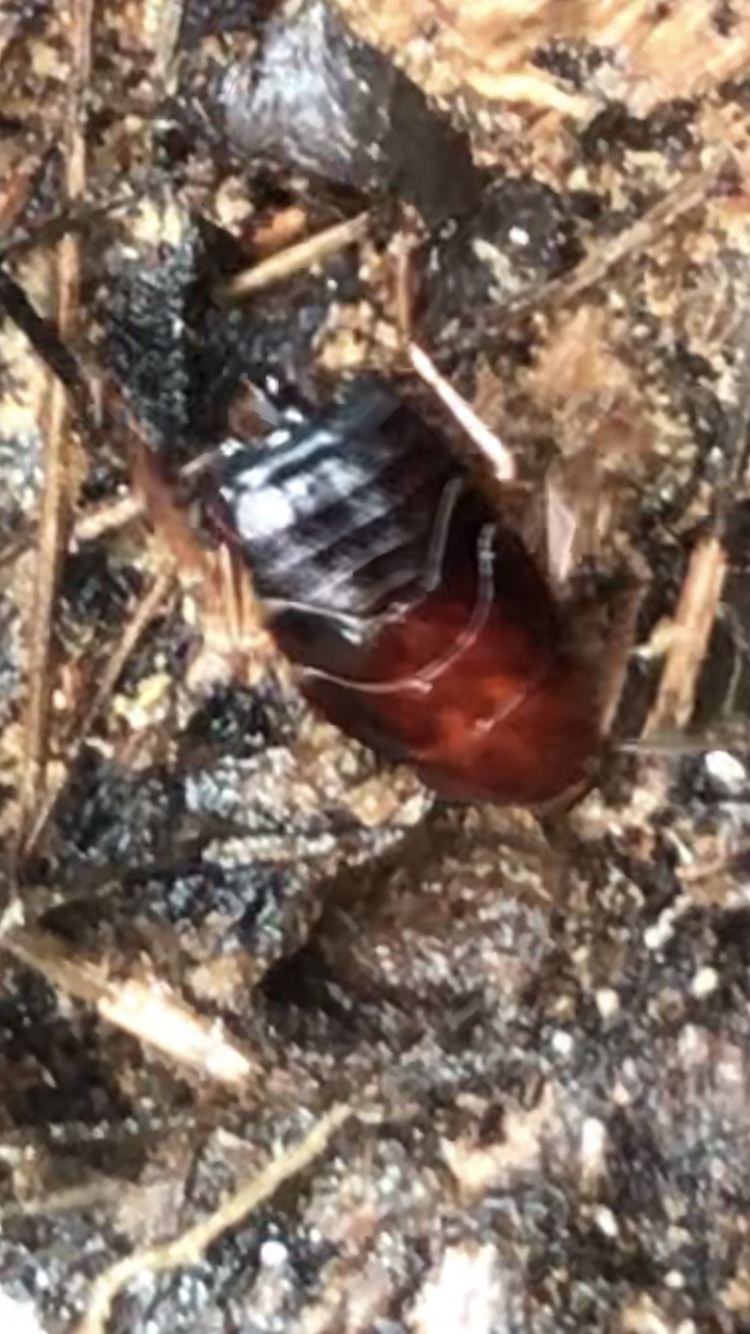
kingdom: Animalia
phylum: Arthropoda
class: Insecta
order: Blattodea
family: Ectobiidae
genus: Parcoblatta
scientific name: Parcoblatta americana
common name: Western wood cockroach
